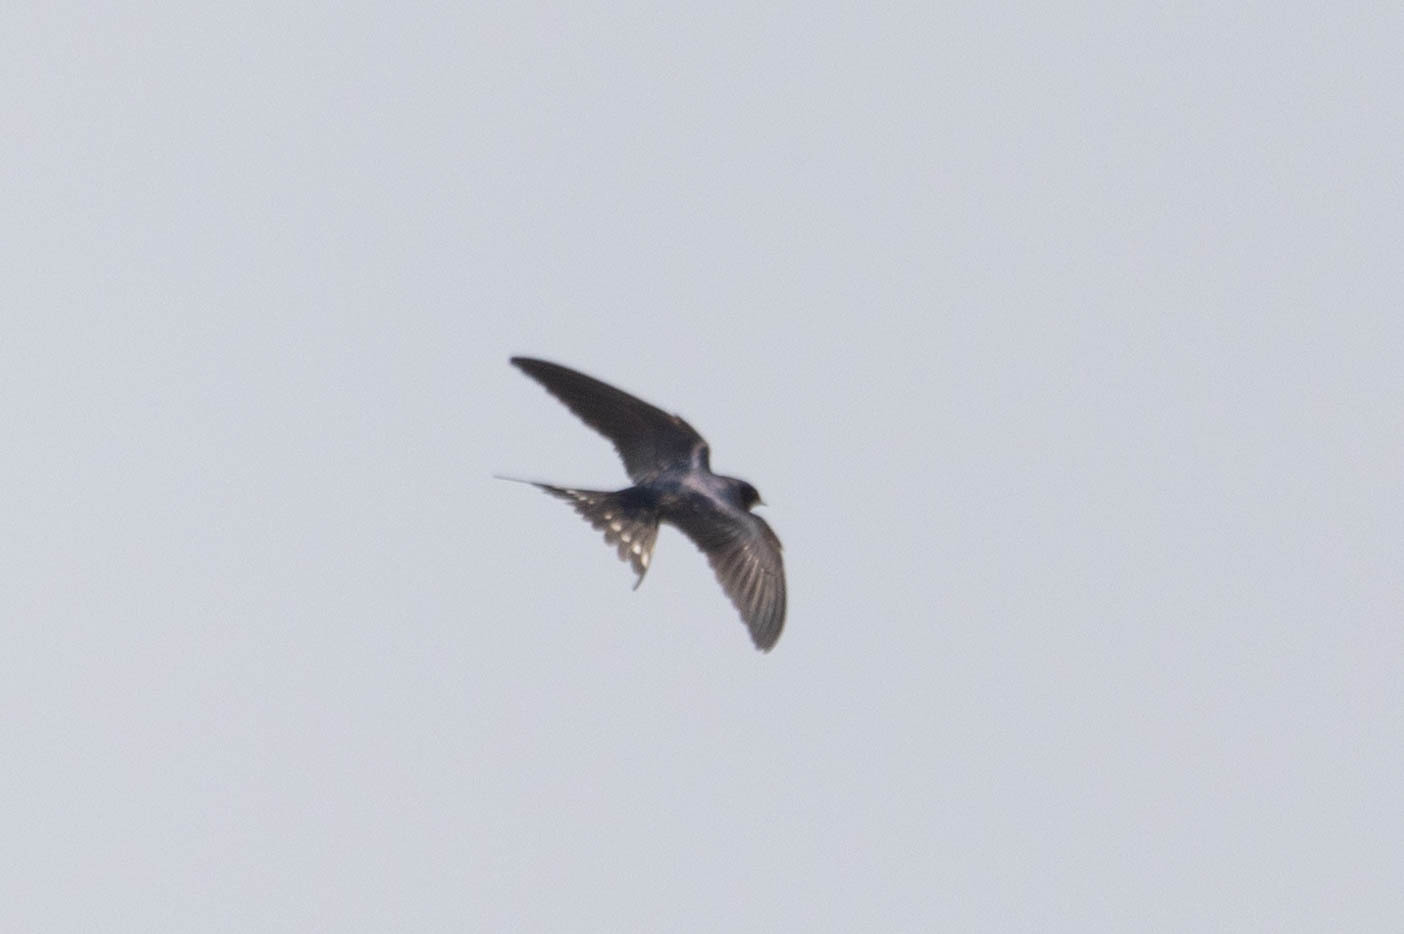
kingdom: Animalia
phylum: Chordata
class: Aves
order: Passeriformes
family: Hirundinidae
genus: Hirundo
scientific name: Hirundo rustica
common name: Barn swallow
